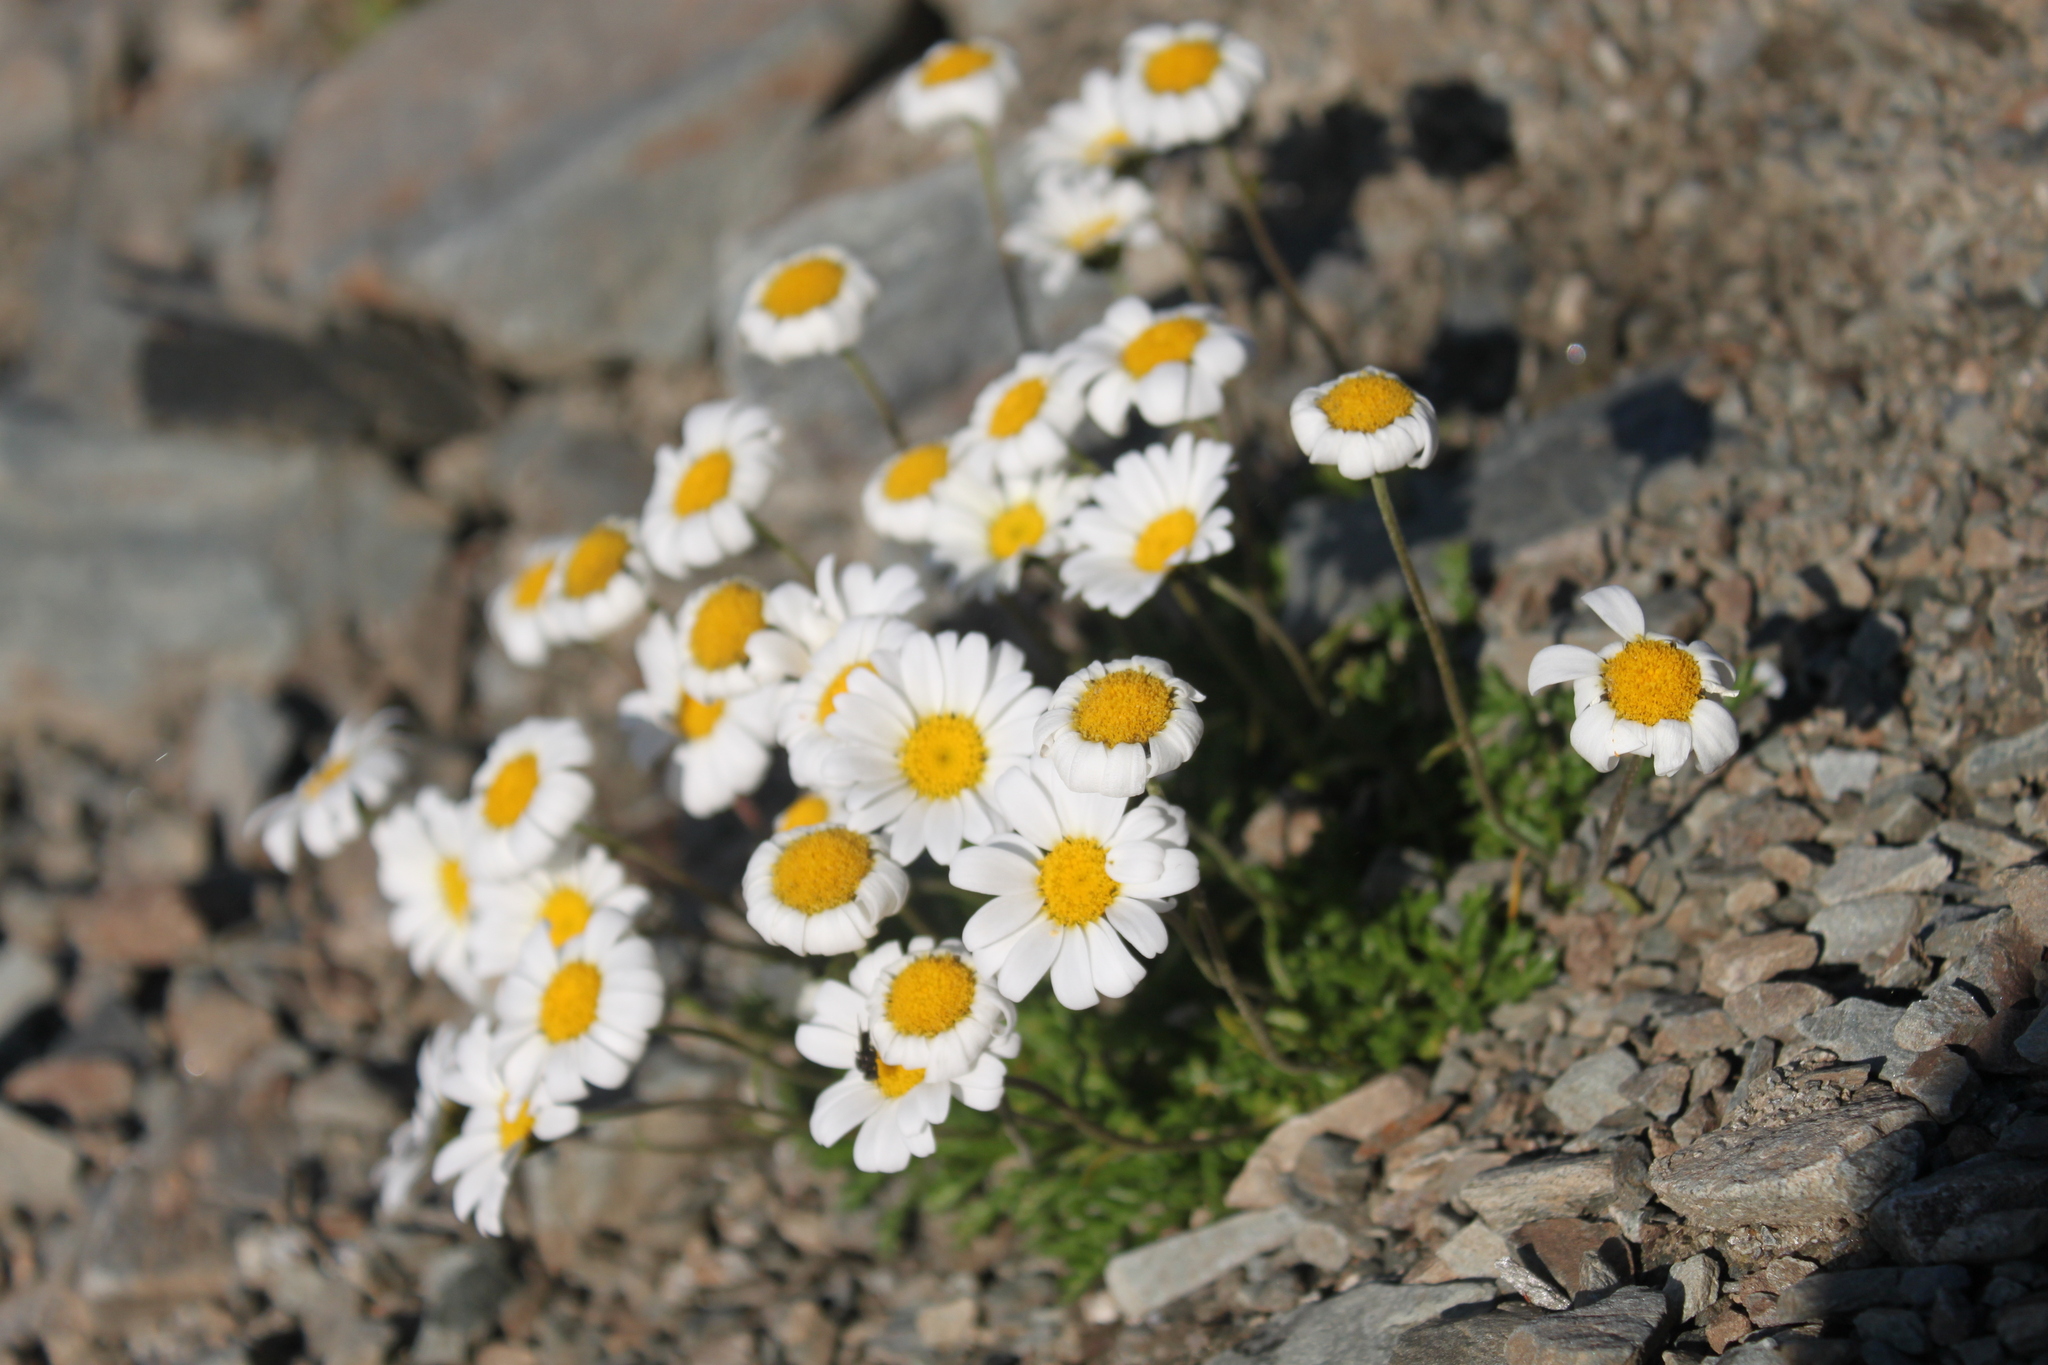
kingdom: Plantae
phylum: Tracheophyta
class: Magnoliopsida
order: Asterales
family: Asteraceae
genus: Leucanthemopsis
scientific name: Leucanthemopsis alpina
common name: Alpine moon daisy
